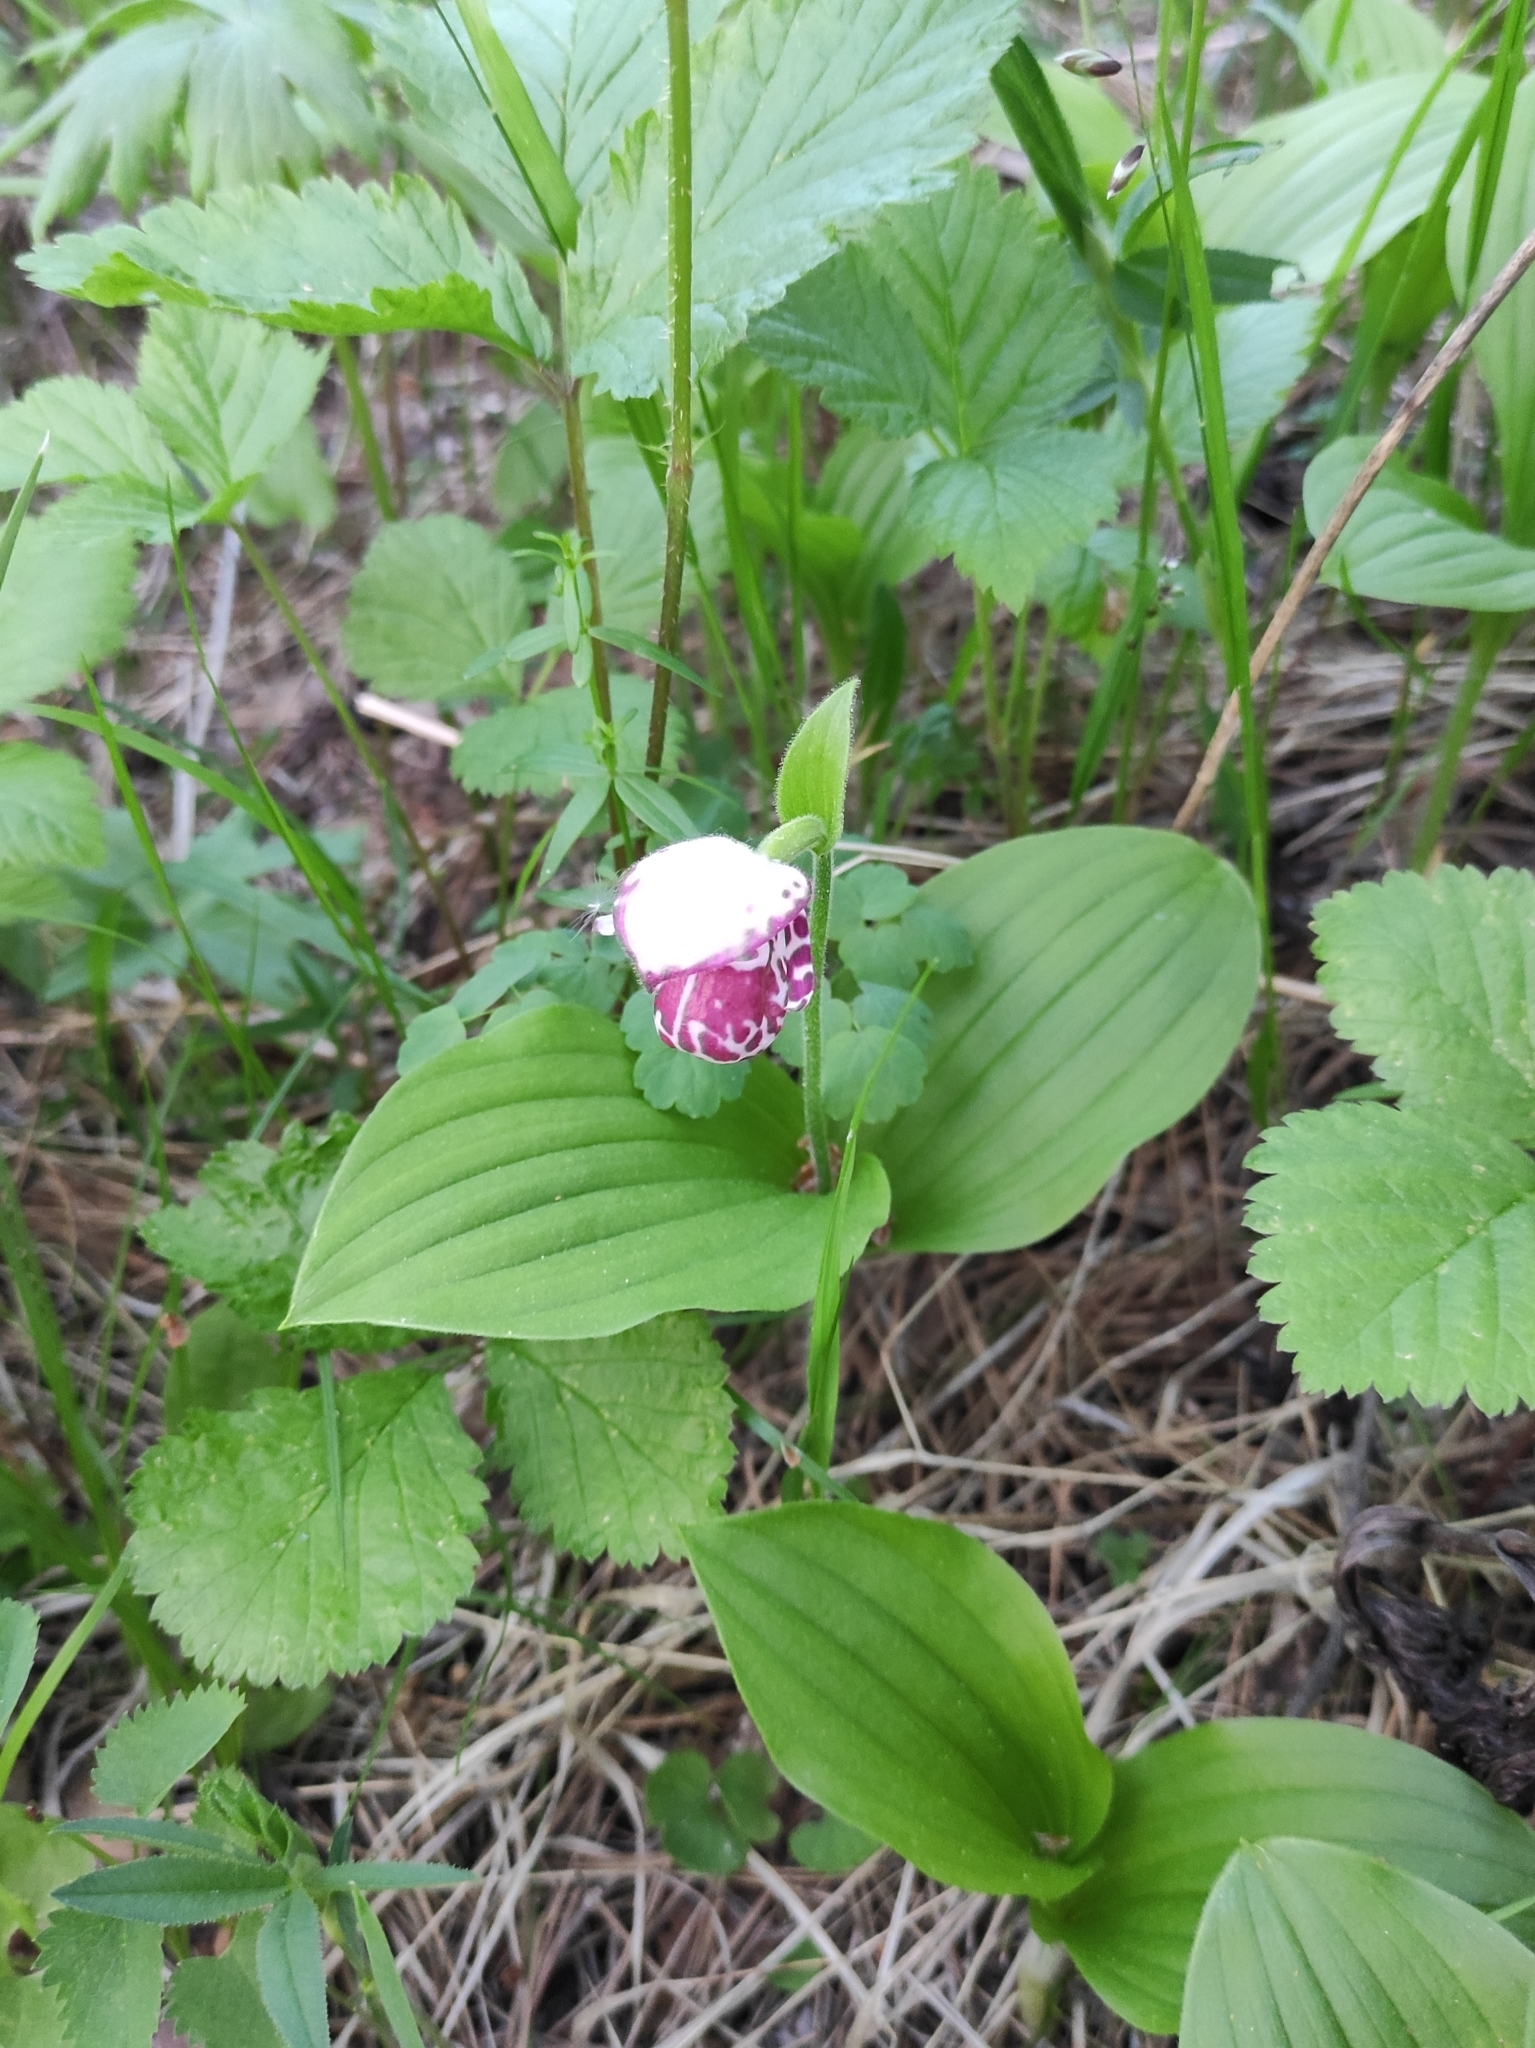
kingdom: Plantae
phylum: Tracheophyta
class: Liliopsida
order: Asparagales
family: Orchidaceae
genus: Cypripedium
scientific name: Cypripedium guttatum
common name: Pink lady slipper
